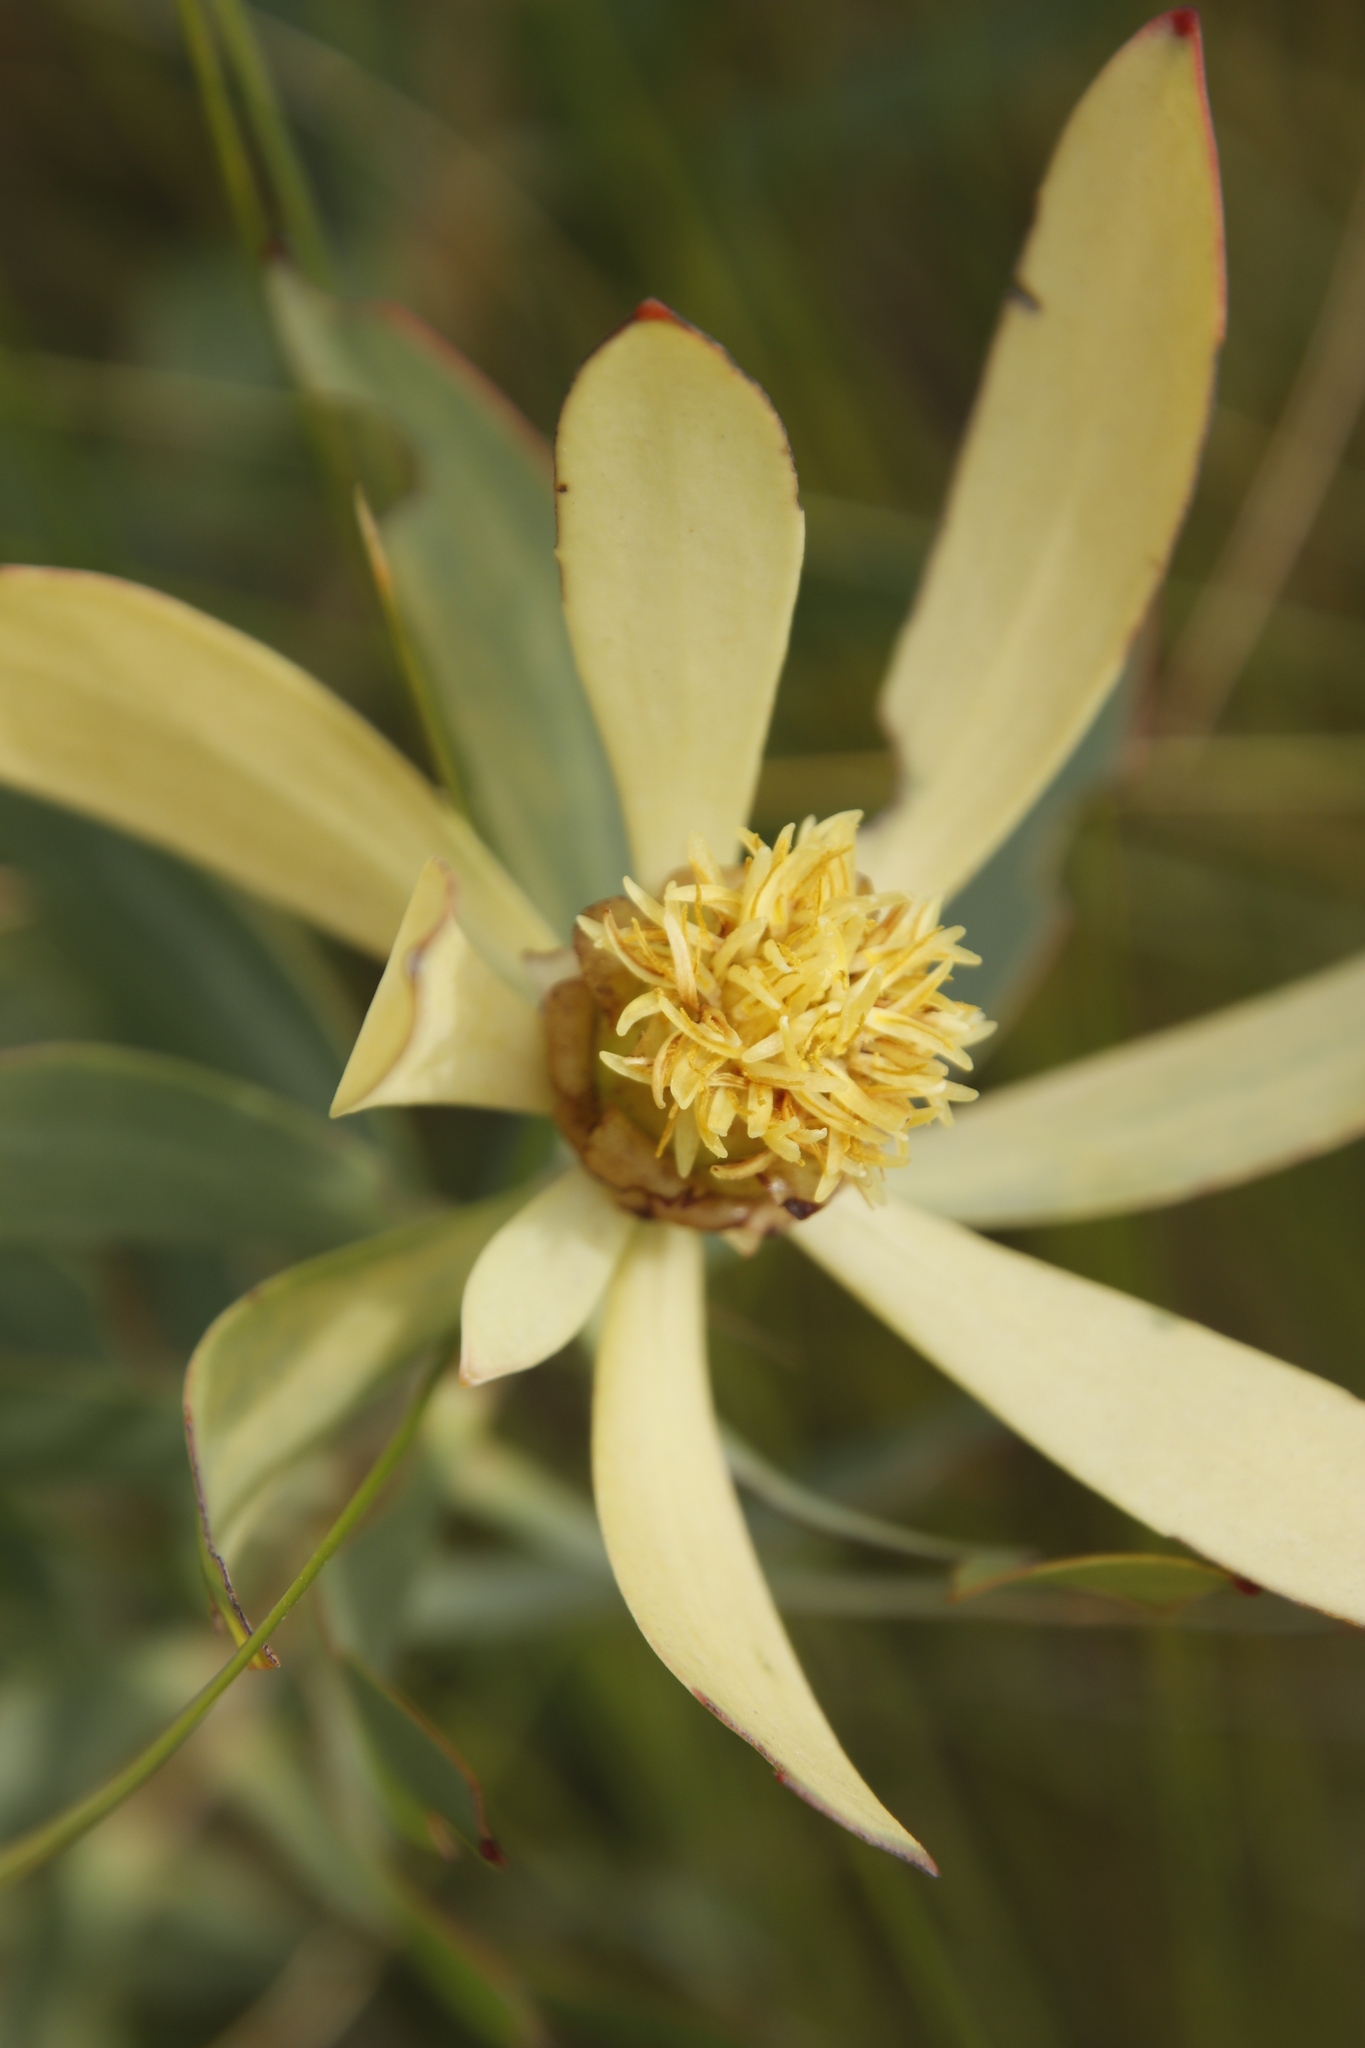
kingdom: Plantae
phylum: Tracheophyta
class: Magnoliopsida
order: Proteales
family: Proteaceae
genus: Leucadendron
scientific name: Leucadendron
